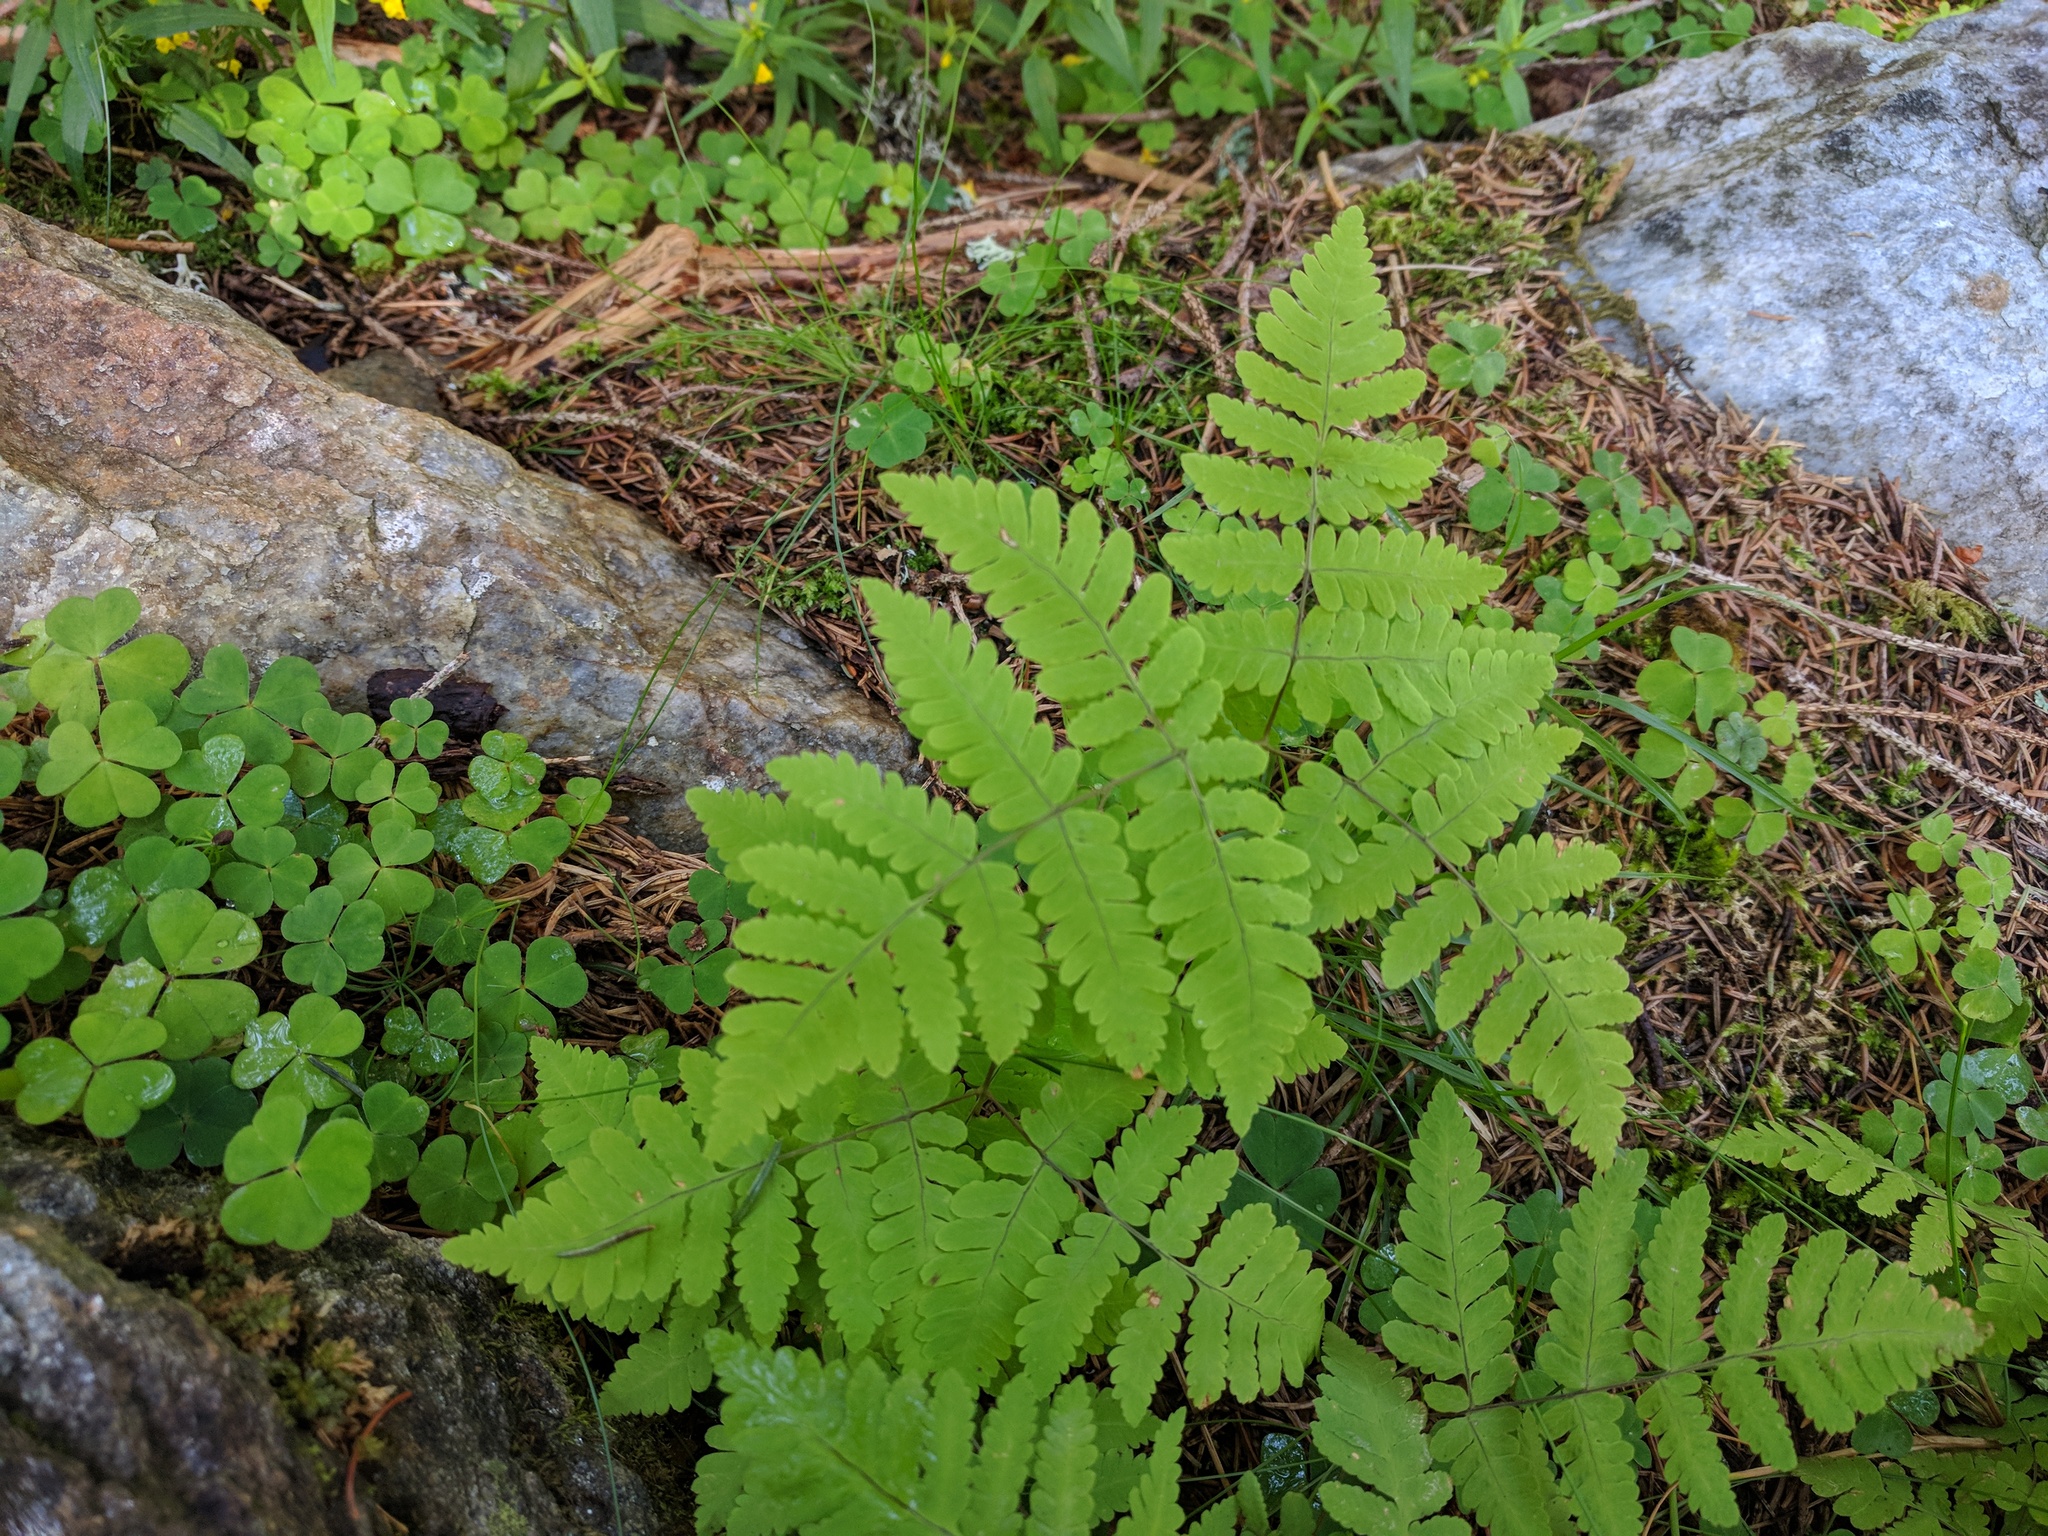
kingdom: Plantae
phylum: Tracheophyta
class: Polypodiopsida
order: Polypodiales
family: Cystopteridaceae
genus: Gymnocarpium
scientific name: Gymnocarpium dryopteris
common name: Oak fern
